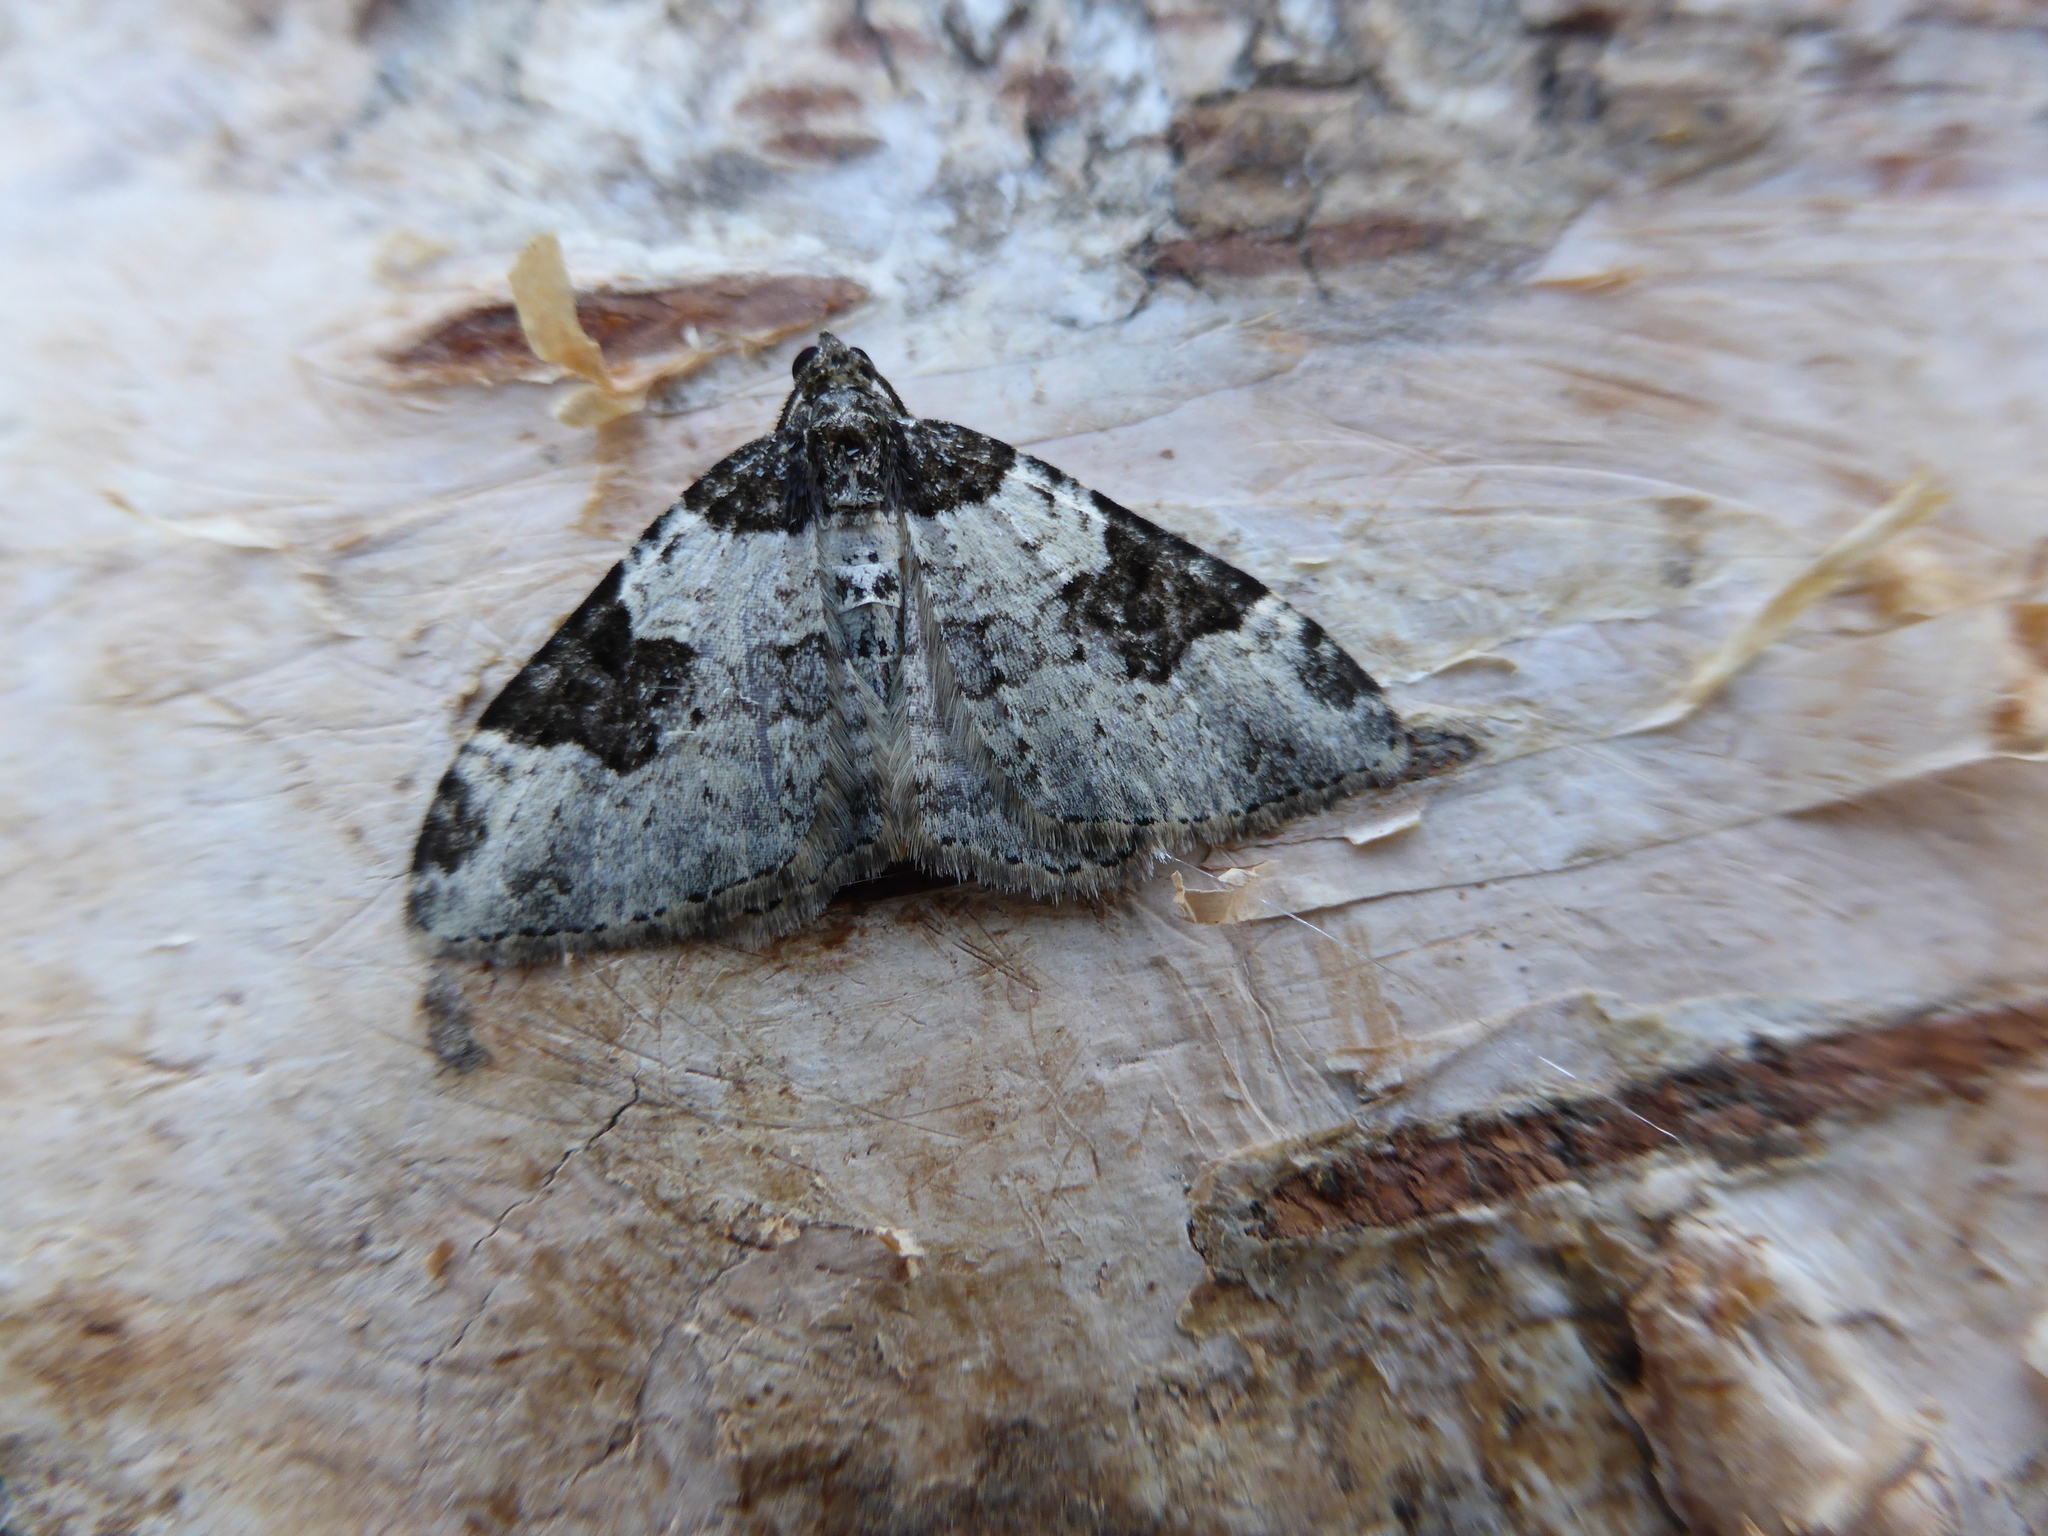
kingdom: Animalia
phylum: Arthropoda
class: Insecta
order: Lepidoptera
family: Geometridae
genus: Xanthorhoe
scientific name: Xanthorhoe fluctuata
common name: Garden carpet
